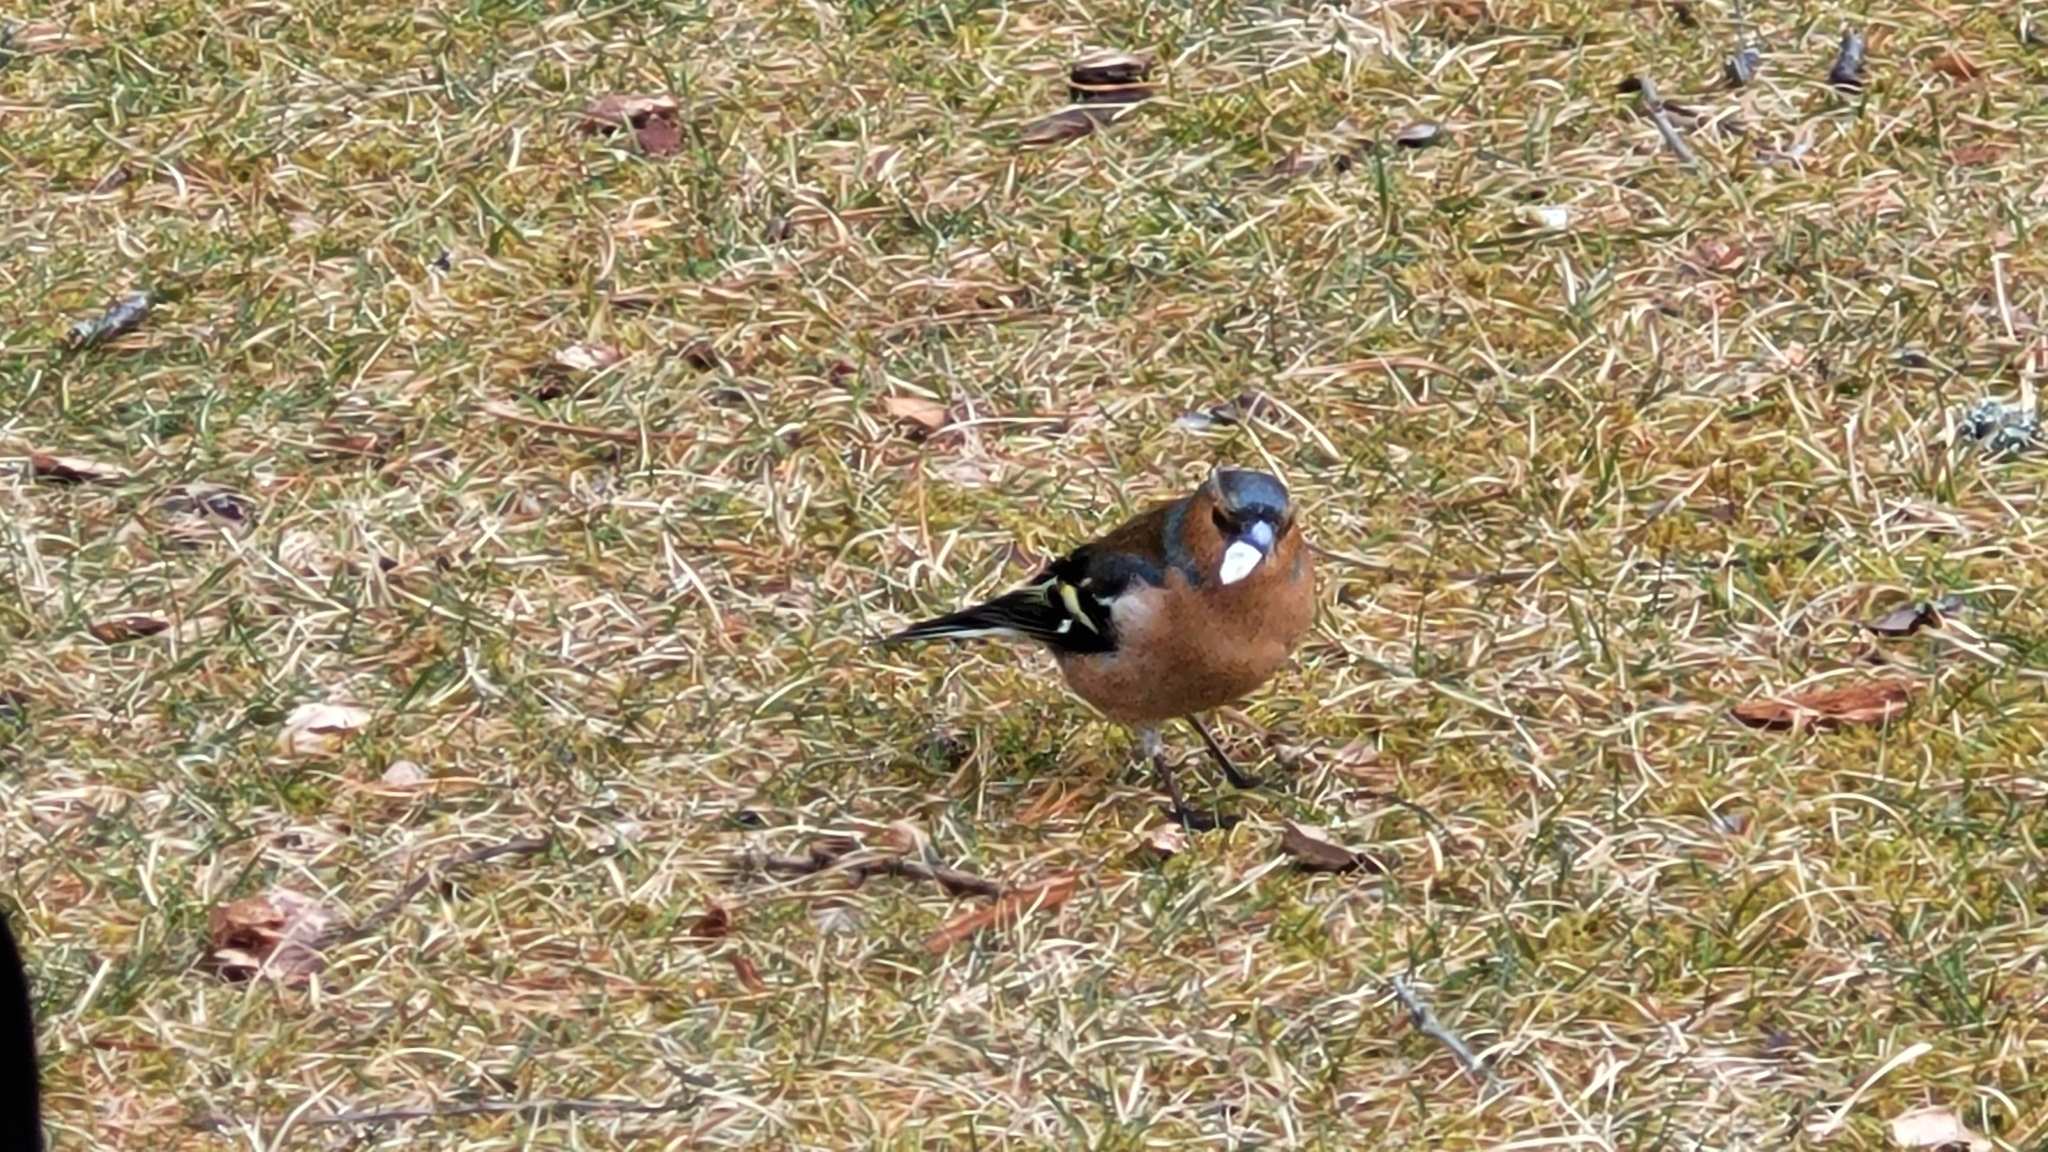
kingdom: Animalia
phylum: Chordata
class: Aves
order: Passeriformes
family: Fringillidae
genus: Fringilla
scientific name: Fringilla coelebs
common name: Common chaffinch
